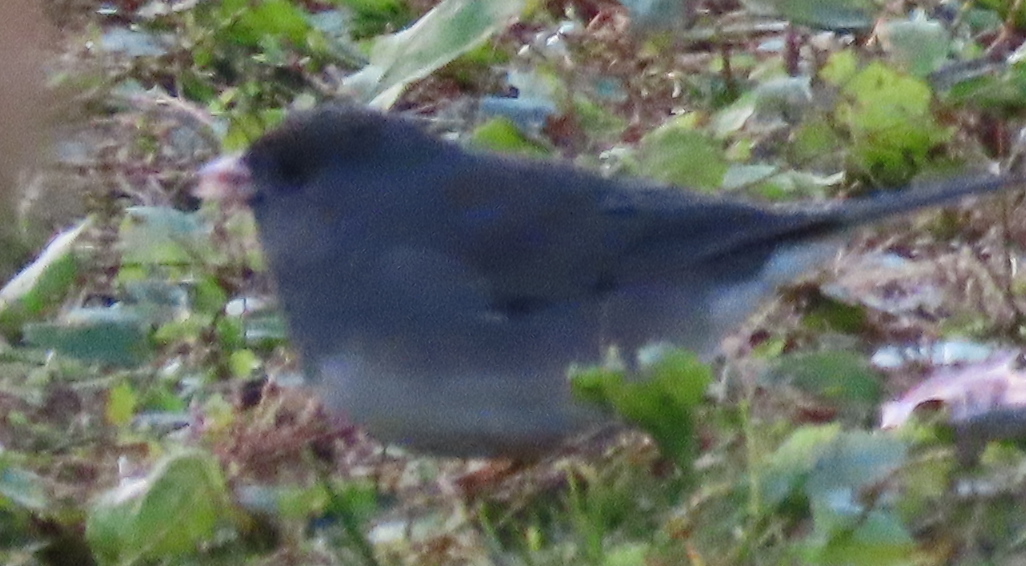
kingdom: Animalia
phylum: Chordata
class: Aves
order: Passeriformes
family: Passerellidae
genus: Junco
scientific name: Junco hyemalis
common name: Dark-eyed junco
